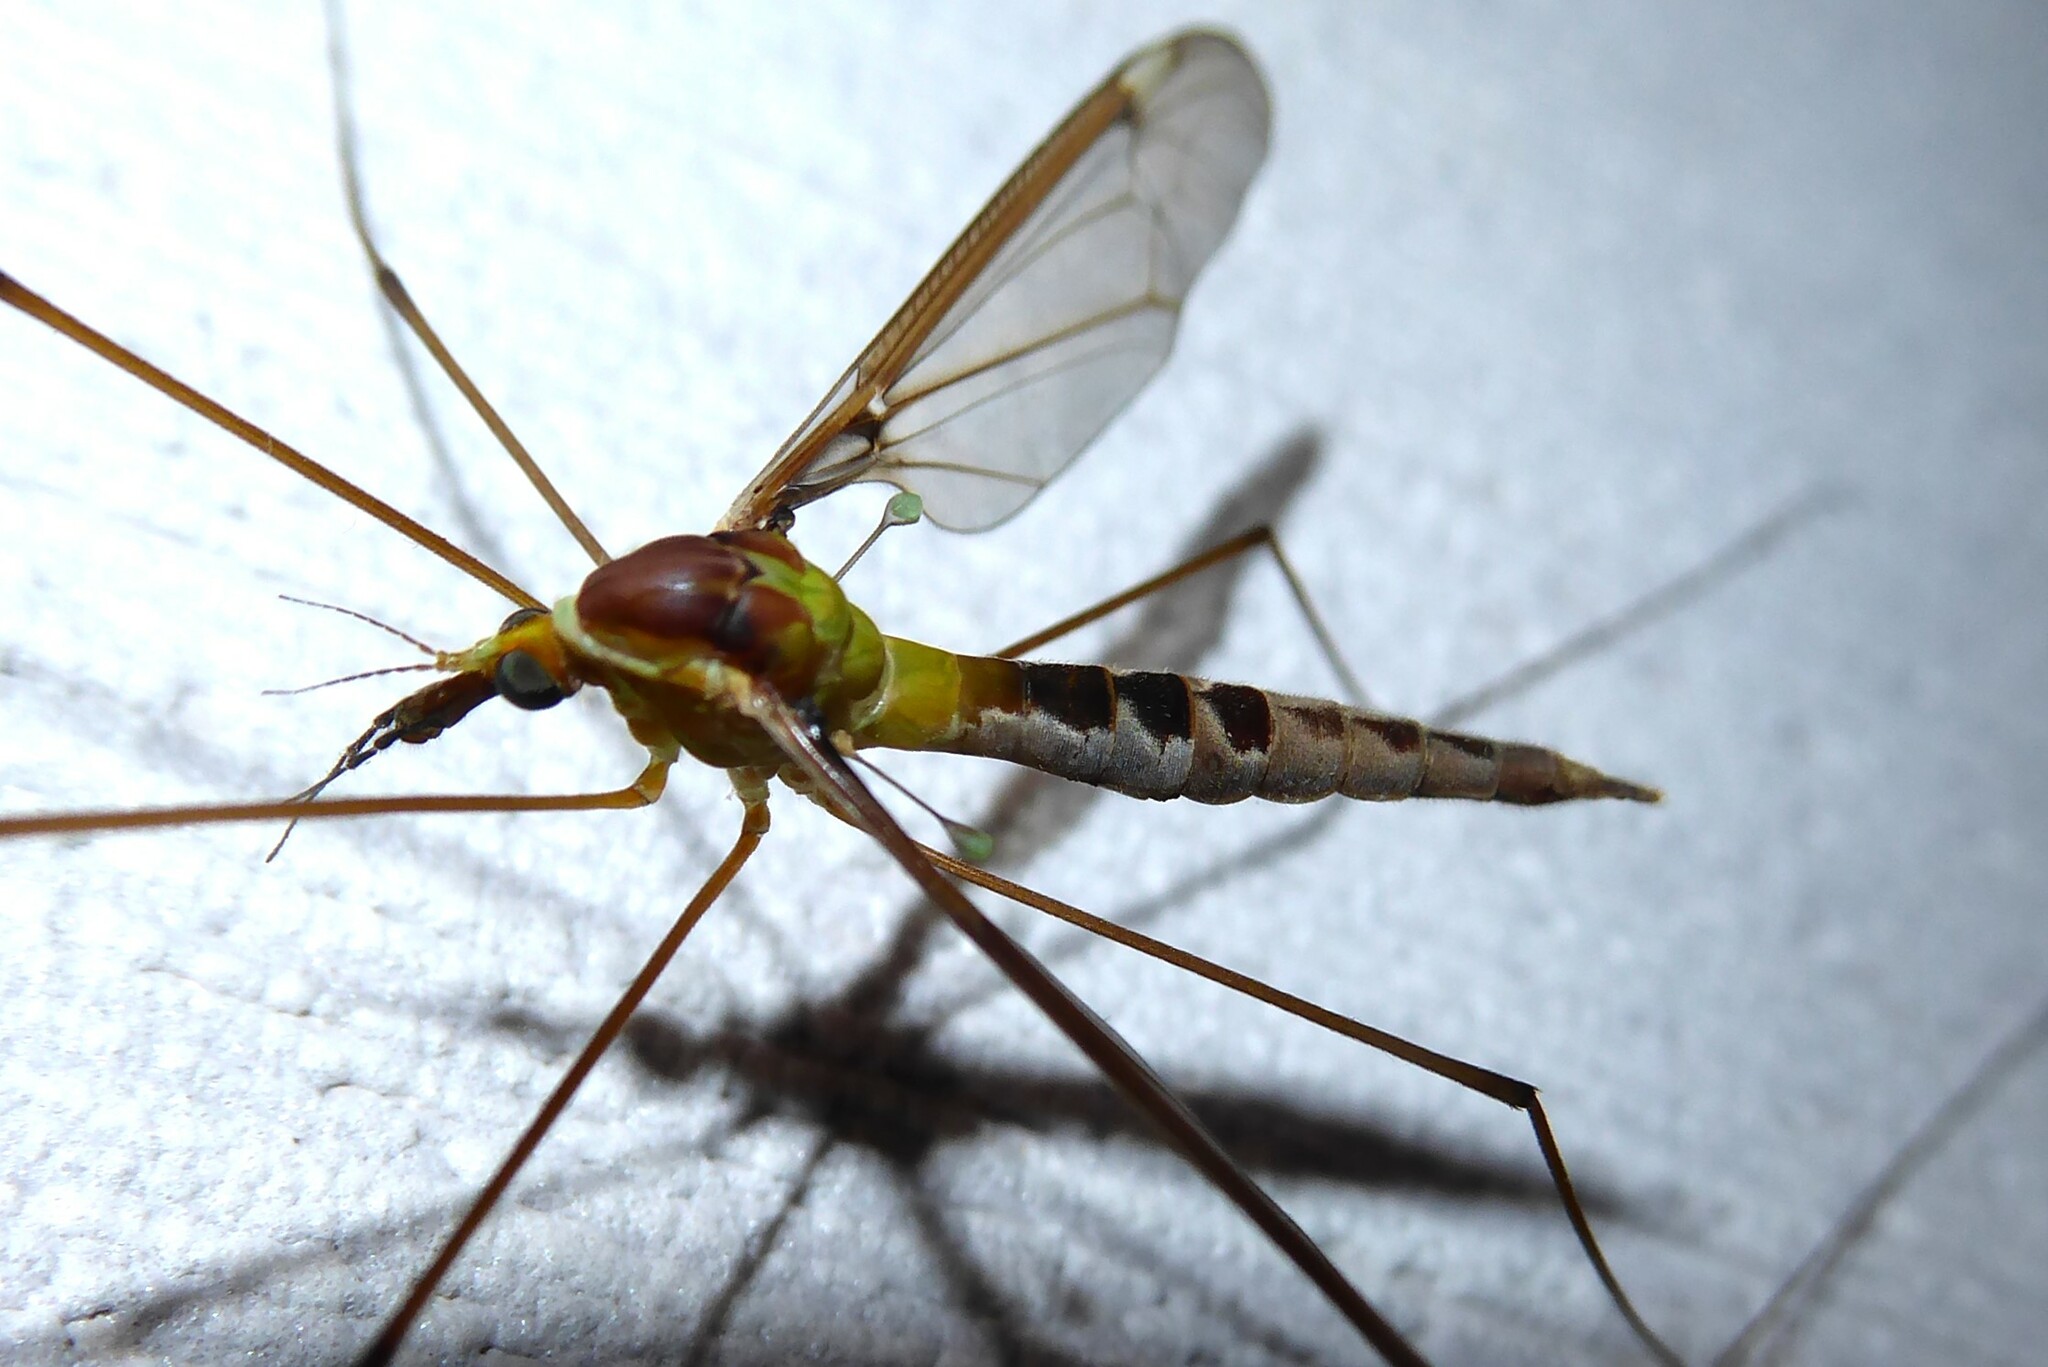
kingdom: Animalia
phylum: Arthropoda
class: Insecta
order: Diptera
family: Tipulidae
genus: Leptotarsus
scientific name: Leptotarsus albistigma
